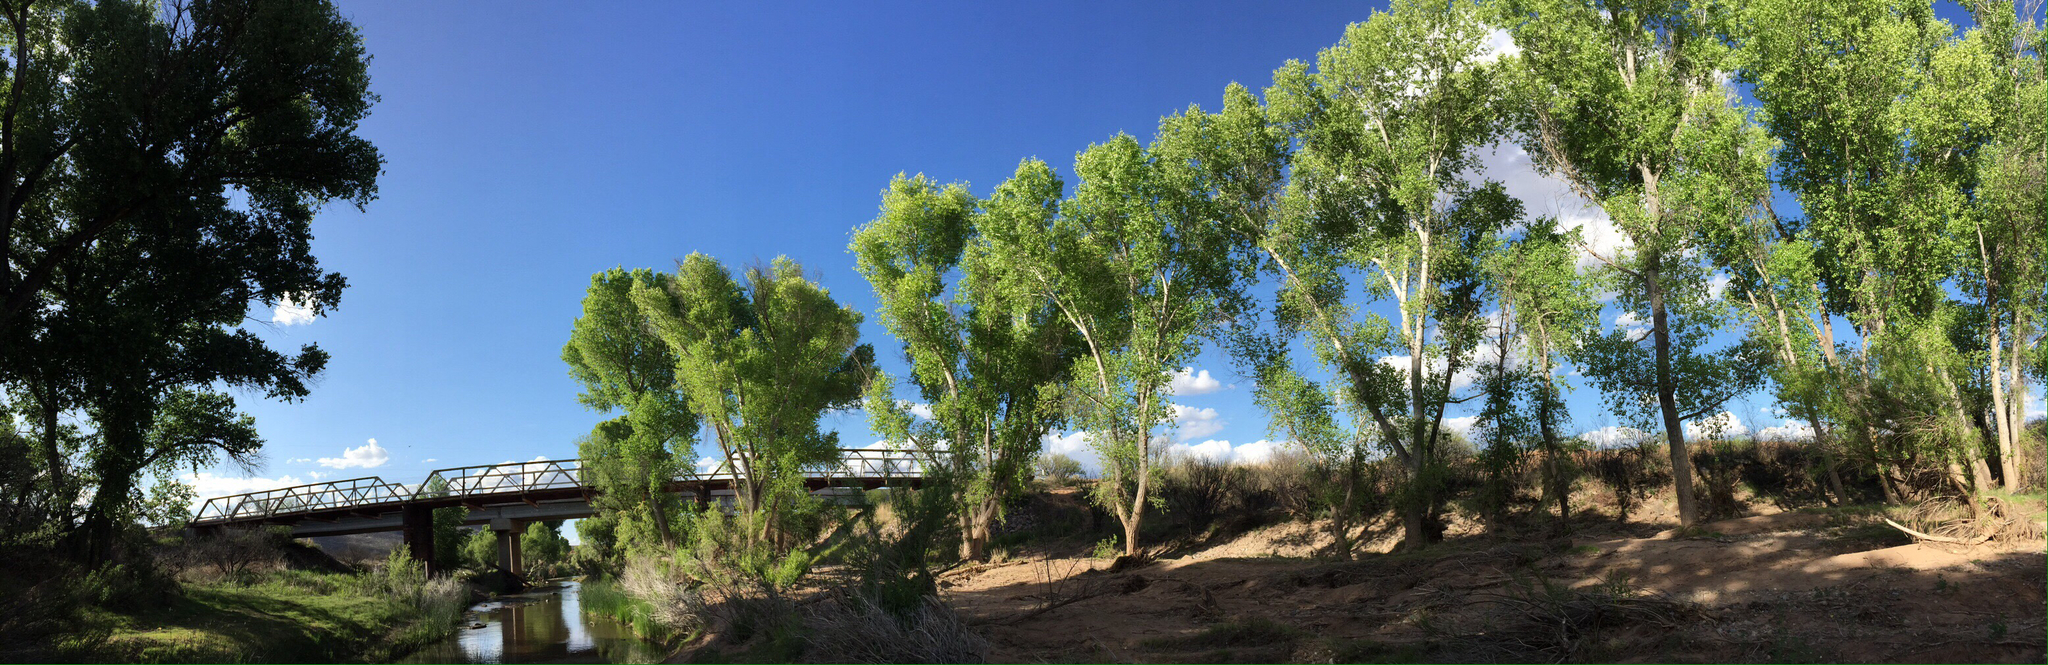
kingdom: Plantae
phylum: Tracheophyta
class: Magnoliopsida
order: Malpighiales
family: Salicaceae
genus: Populus
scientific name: Populus fremontii
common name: Fremont's cottonwood
